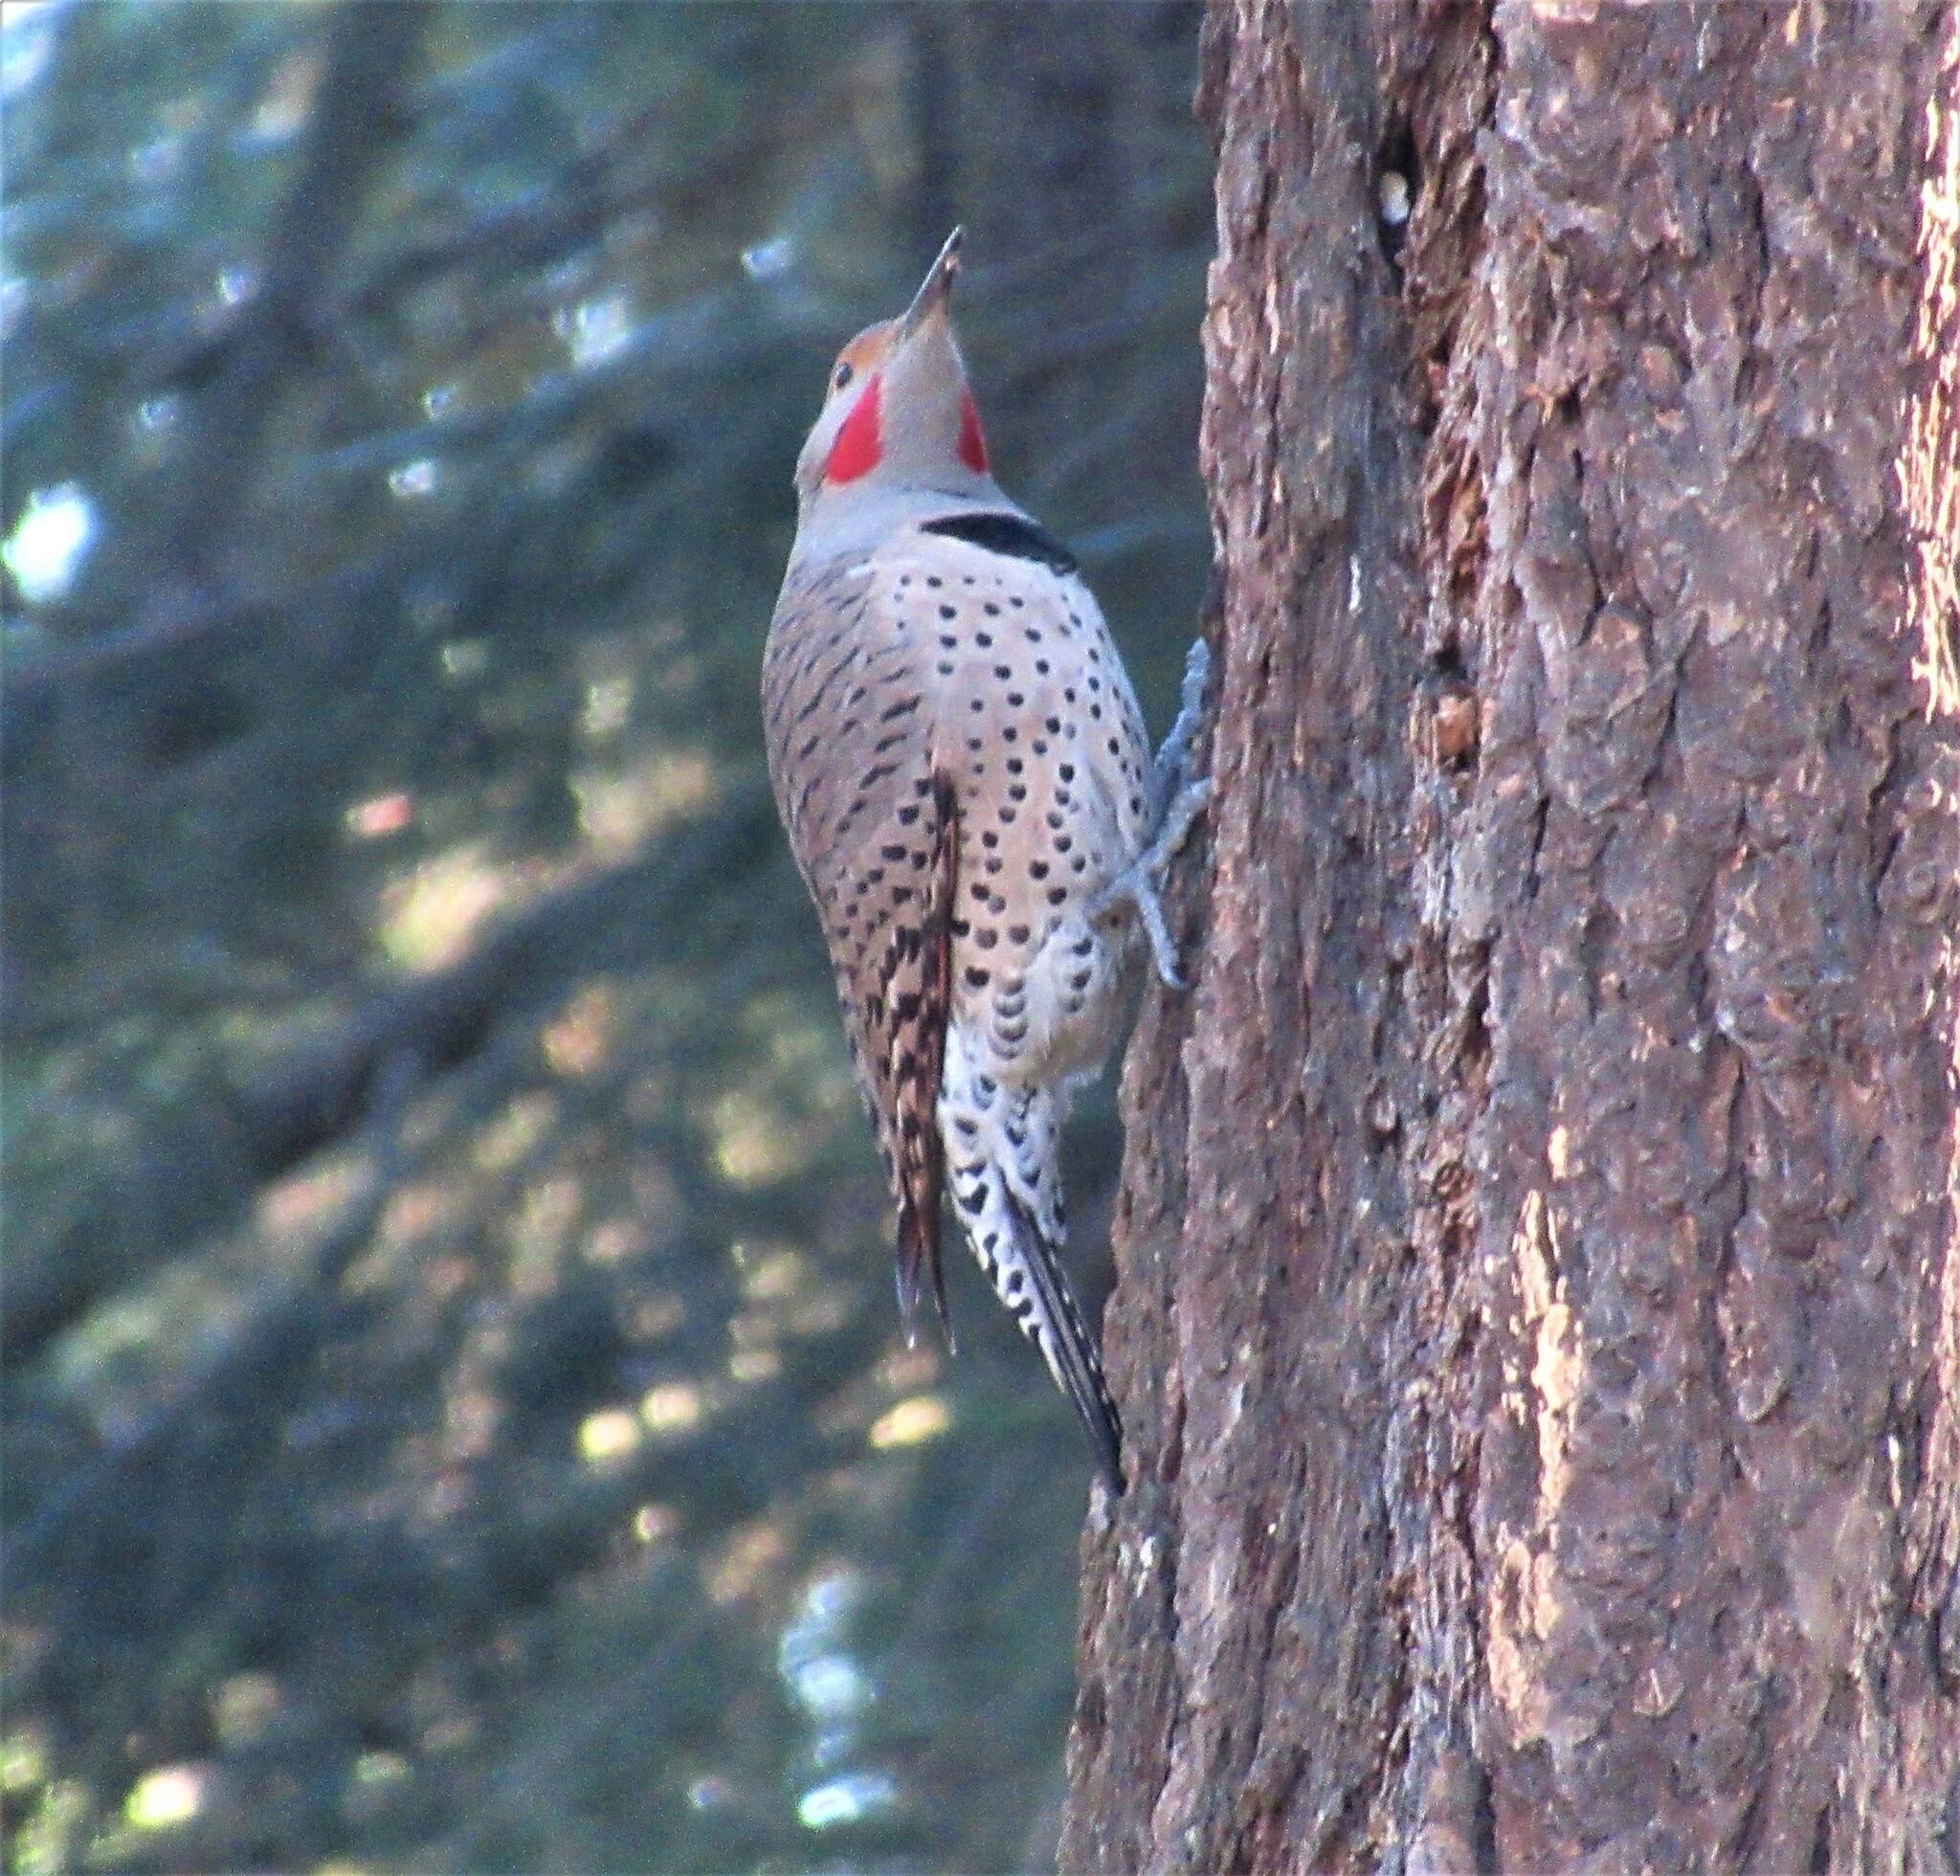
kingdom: Animalia
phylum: Chordata
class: Aves
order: Piciformes
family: Picidae
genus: Colaptes
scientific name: Colaptes auratus
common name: Northern flicker
